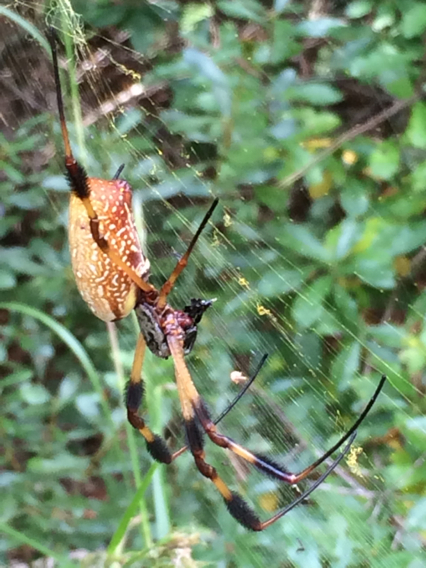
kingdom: Animalia
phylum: Arthropoda
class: Arachnida
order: Araneae
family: Araneidae
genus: Trichonephila
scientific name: Trichonephila clavipes
